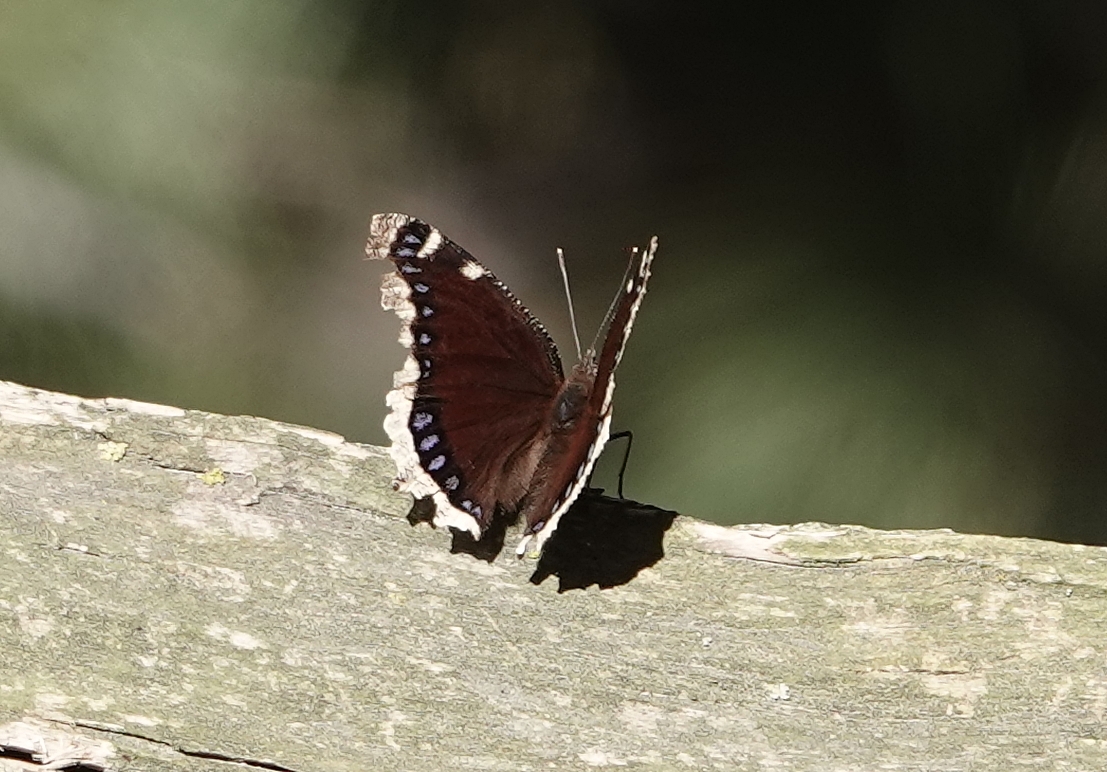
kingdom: Animalia
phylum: Arthropoda
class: Insecta
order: Lepidoptera
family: Nymphalidae
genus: Nymphalis
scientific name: Nymphalis antiopa
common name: Camberwell beauty
